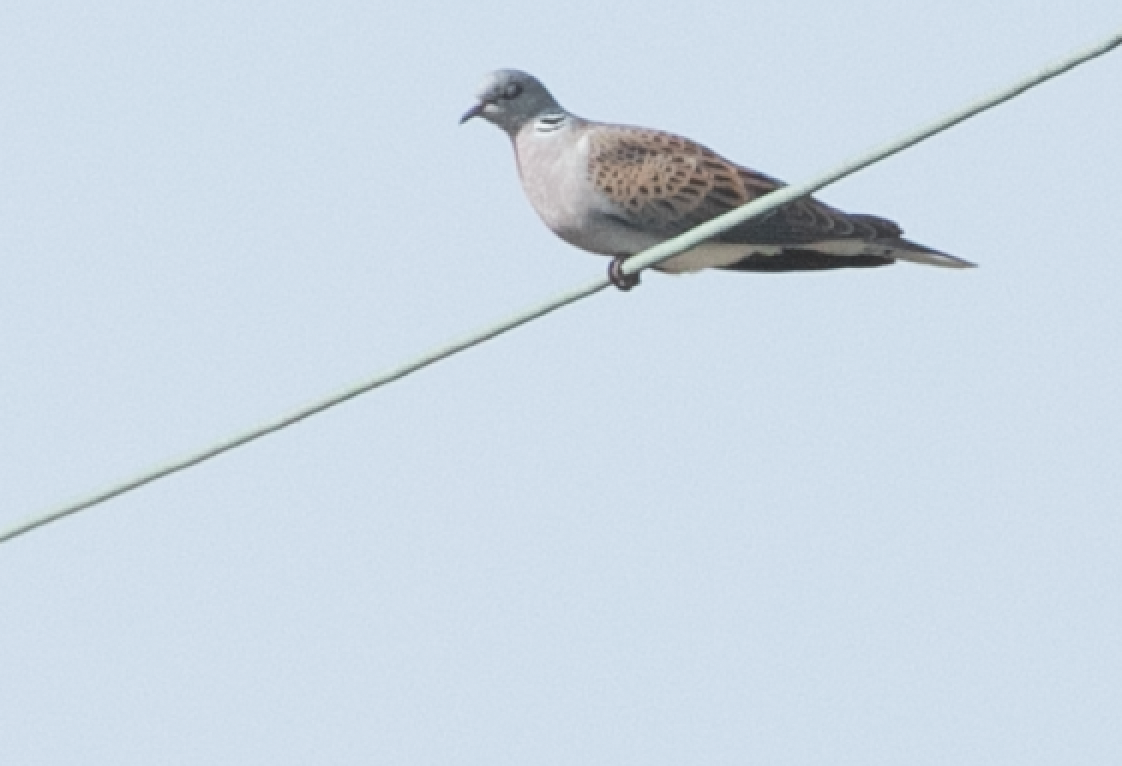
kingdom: Animalia
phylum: Chordata
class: Aves
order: Columbiformes
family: Columbidae
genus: Streptopelia
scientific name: Streptopelia turtur
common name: European turtle dove
